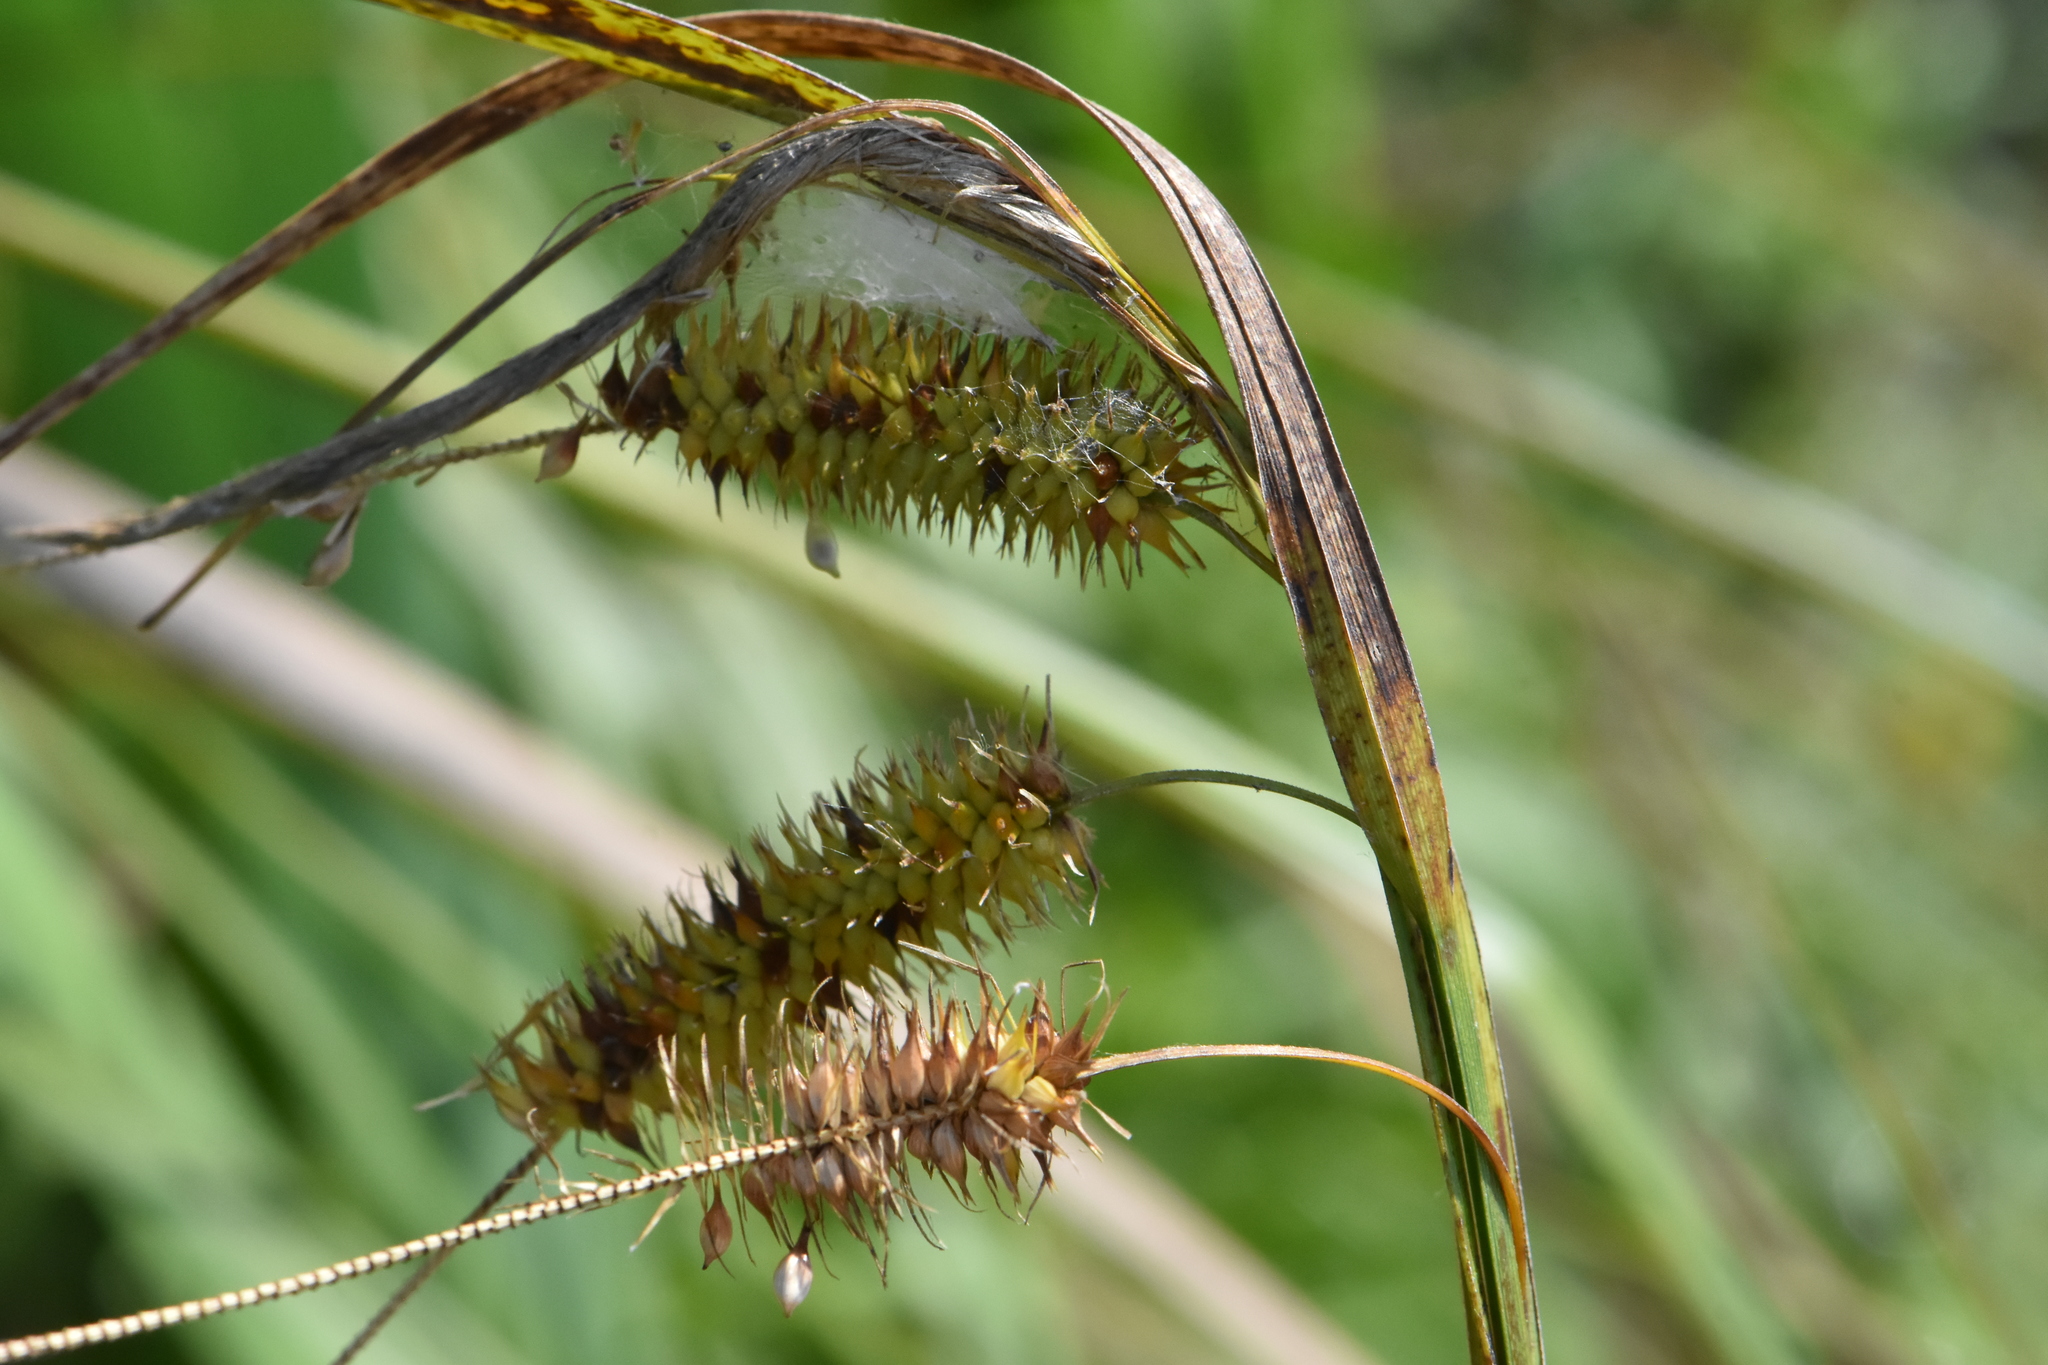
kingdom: Plantae
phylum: Tracheophyta
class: Liliopsida
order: Poales
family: Cyperaceae
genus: Carex
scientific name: Carex pseudocyperus
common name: Cyperus sedge
